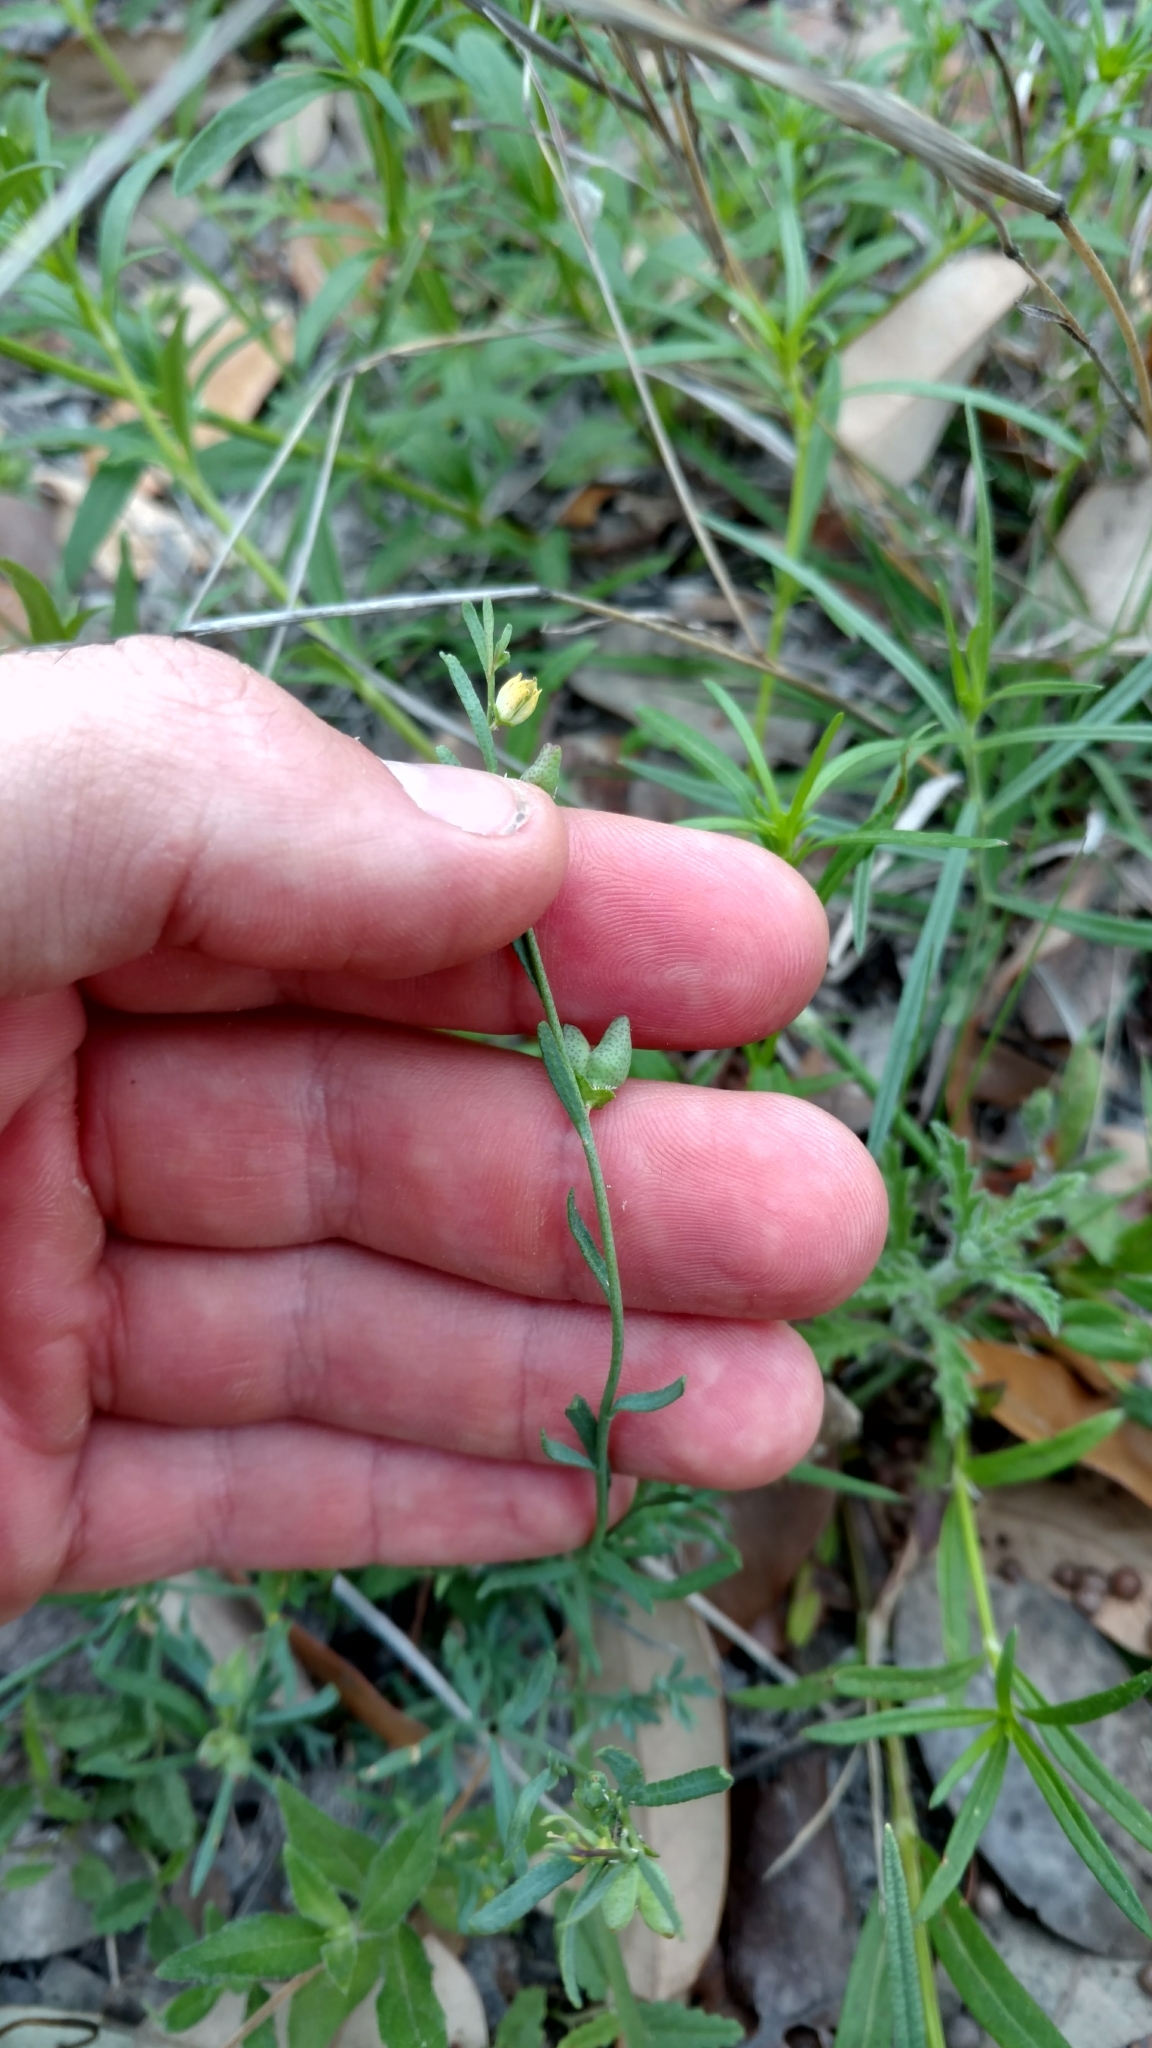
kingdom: Plantae
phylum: Tracheophyta
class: Magnoliopsida
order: Sapindales
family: Rutaceae
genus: Thamnosma
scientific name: Thamnosma texana
